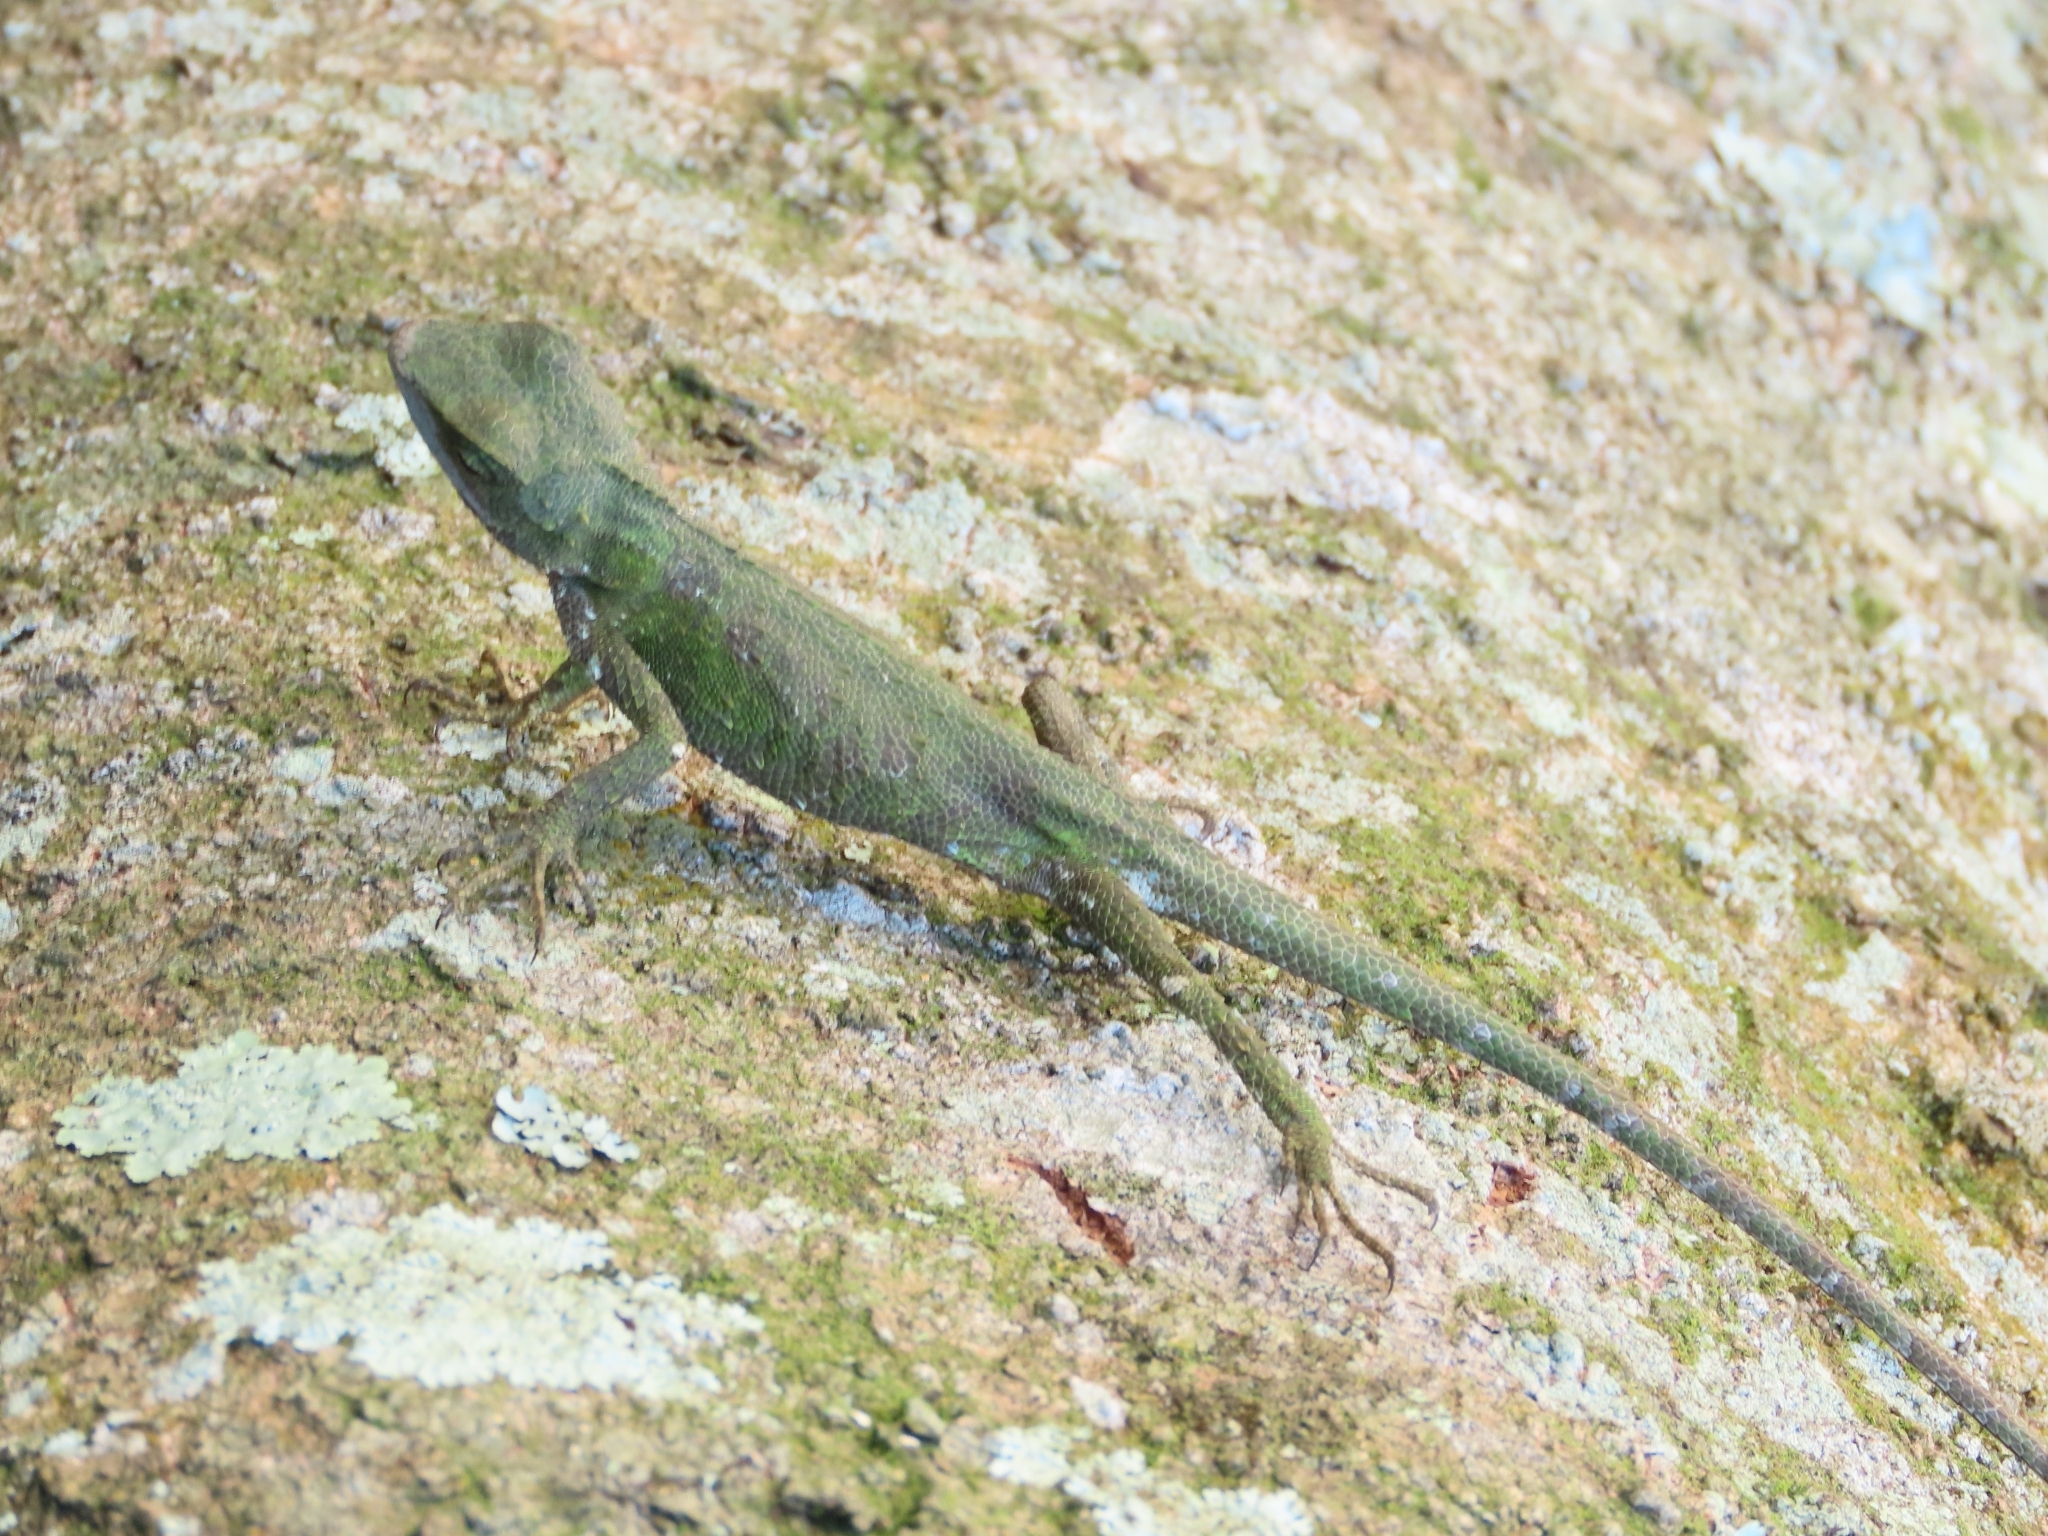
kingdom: Animalia
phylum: Chordata
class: Squamata
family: Agamidae
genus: Diploderma
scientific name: Diploderma brevipes
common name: Short-legged japalure
